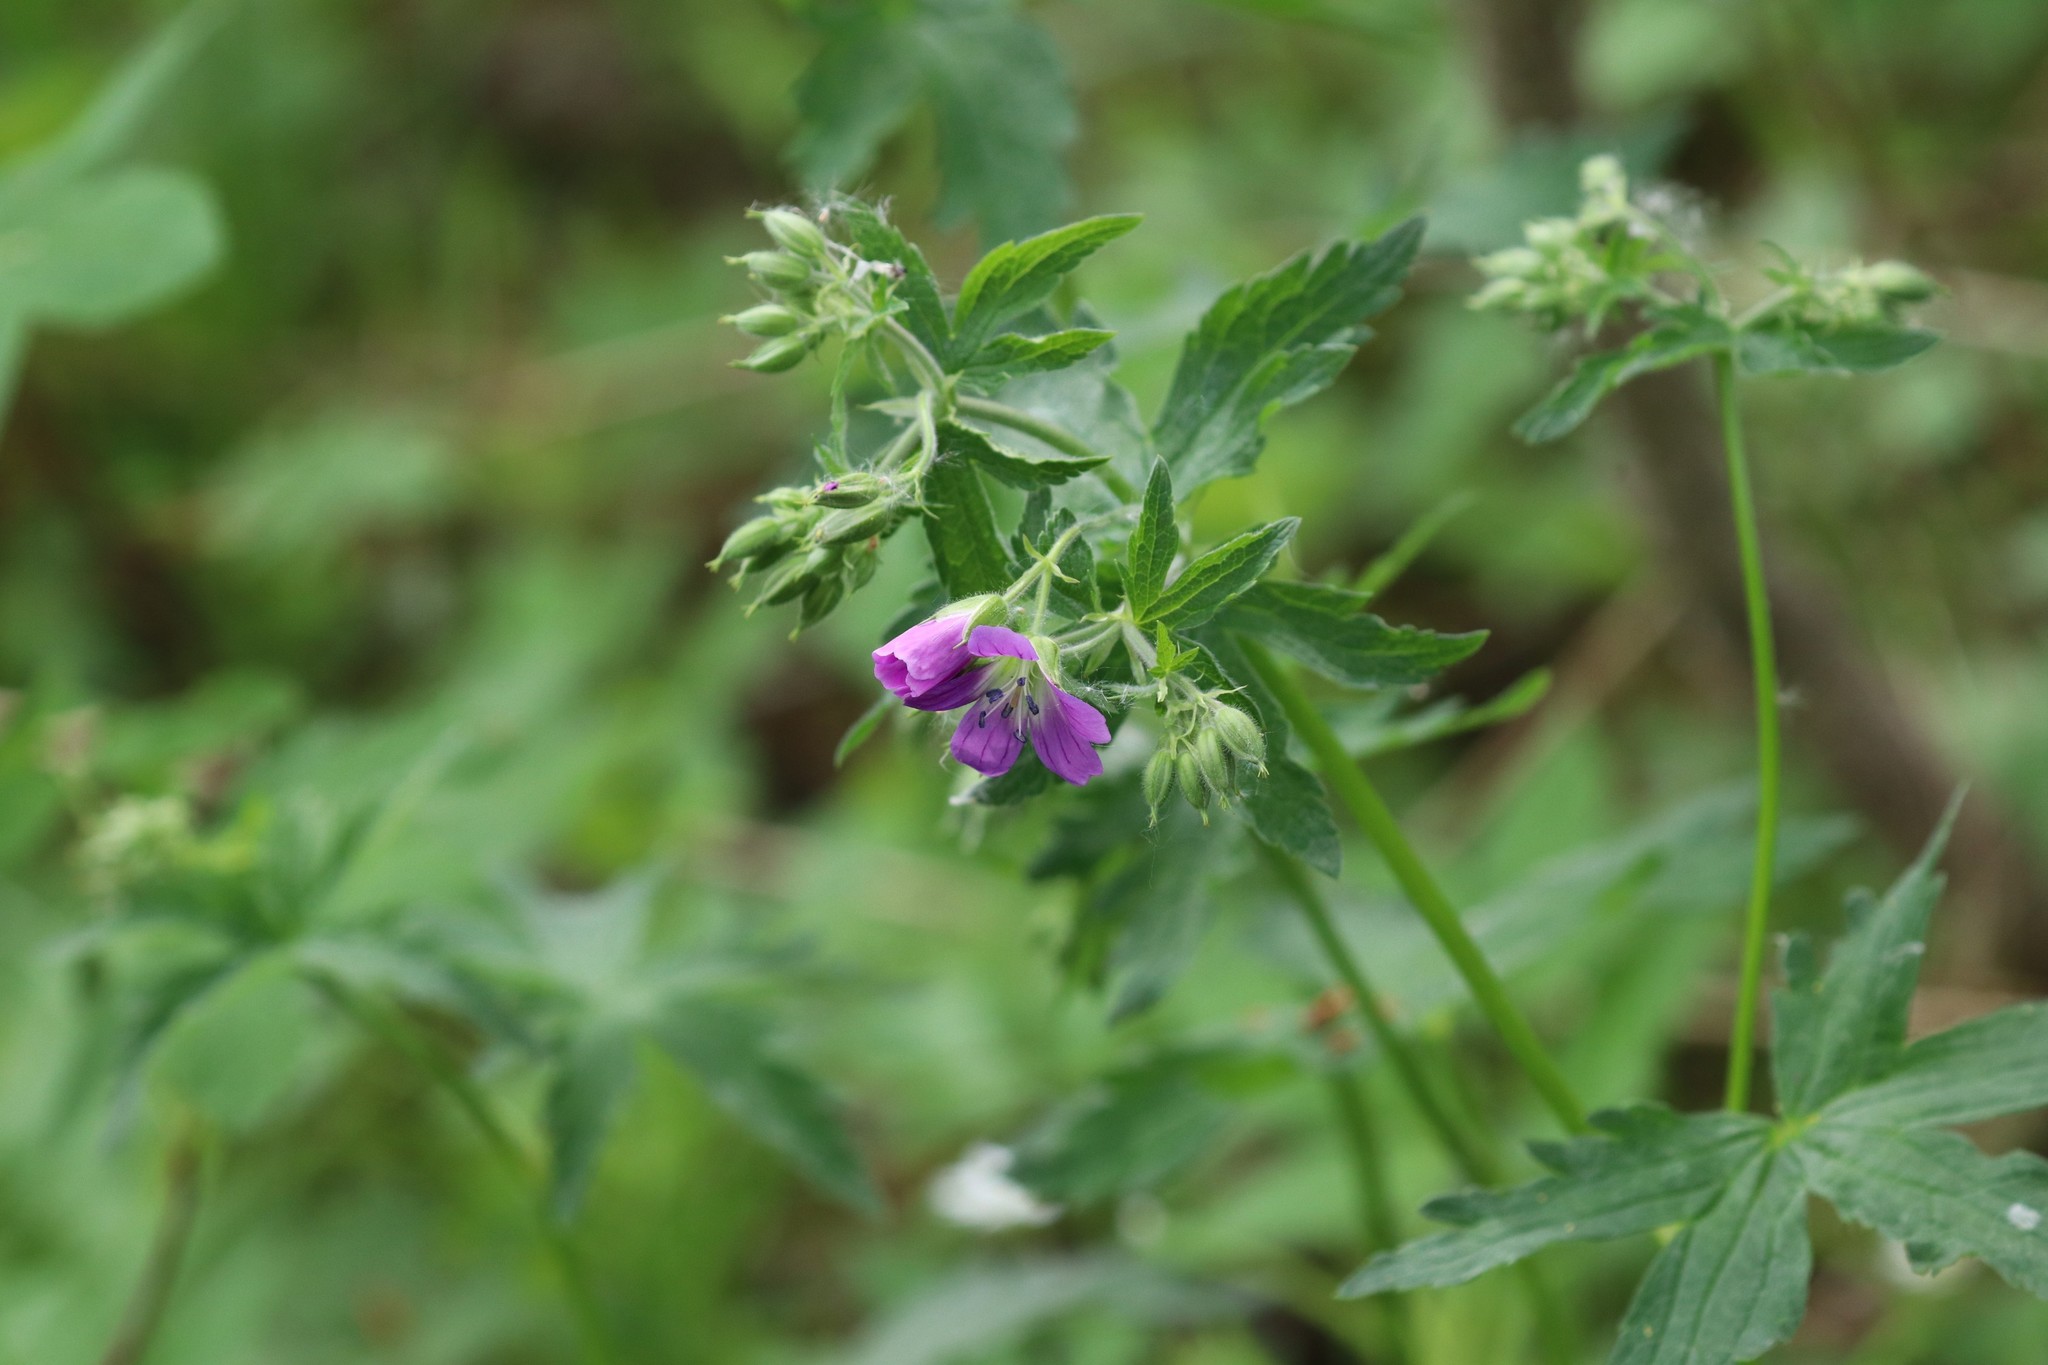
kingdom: Plantae
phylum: Tracheophyta
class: Magnoliopsida
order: Geraniales
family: Geraniaceae
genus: Geranium
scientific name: Geranium sylvaticum
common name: Wood crane's-bill
